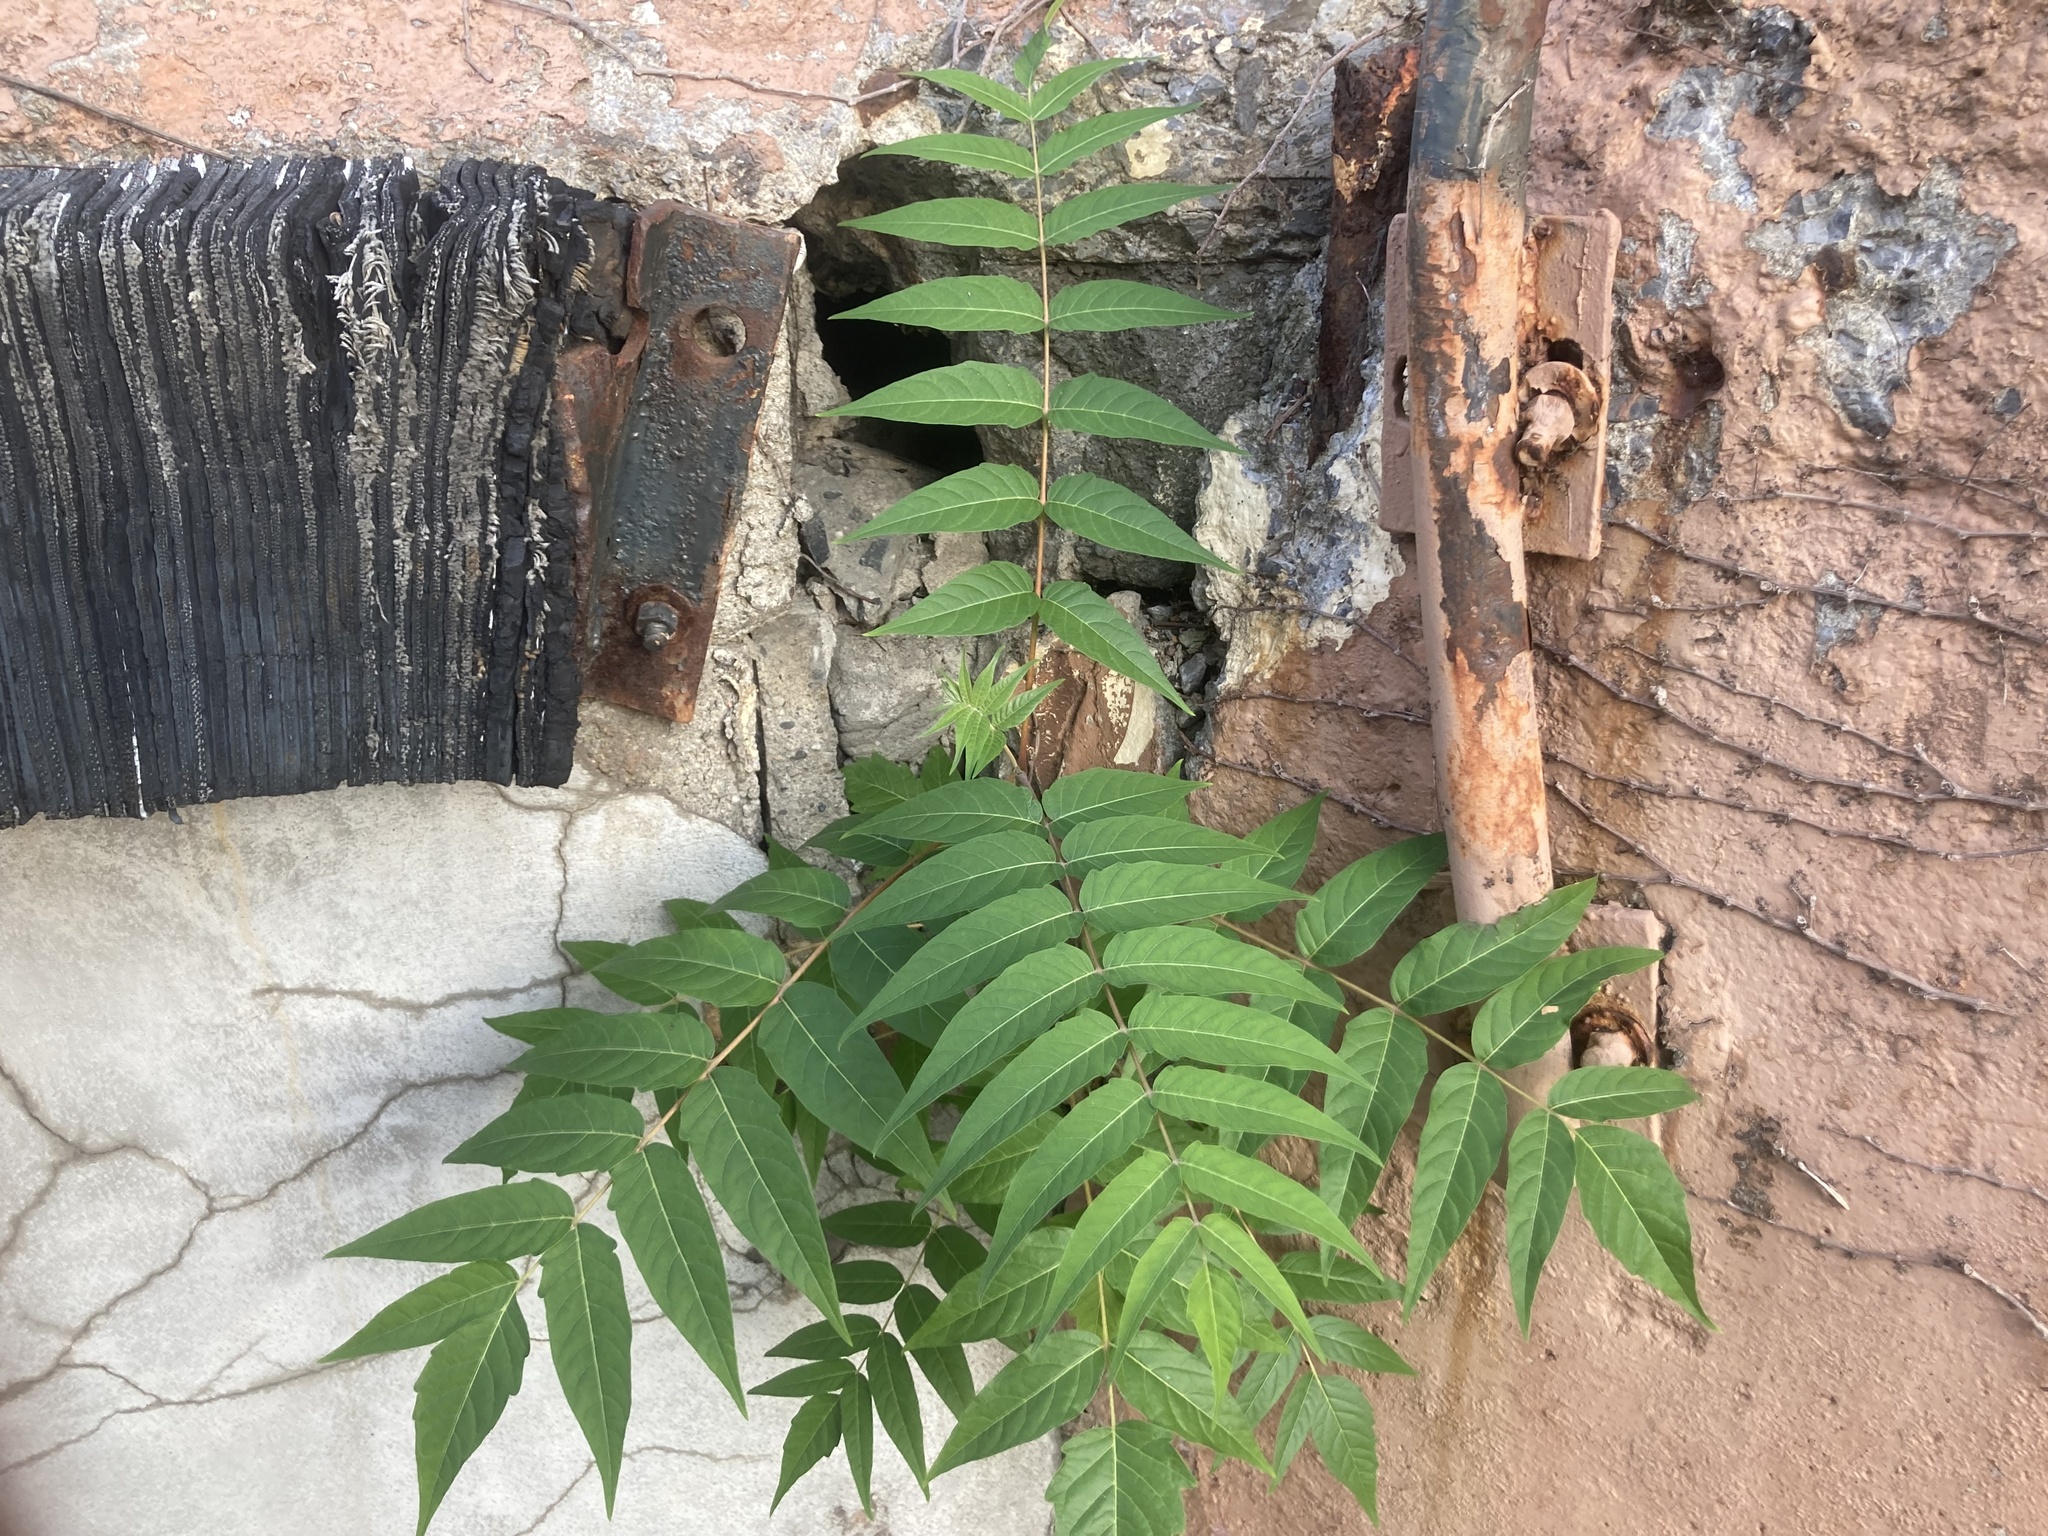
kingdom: Plantae
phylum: Tracheophyta
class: Magnoliopsida
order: Sapindales
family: Simaroubaceae
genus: Ailanthus
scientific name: Ailanthus altissima
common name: Tree-of-heaven
